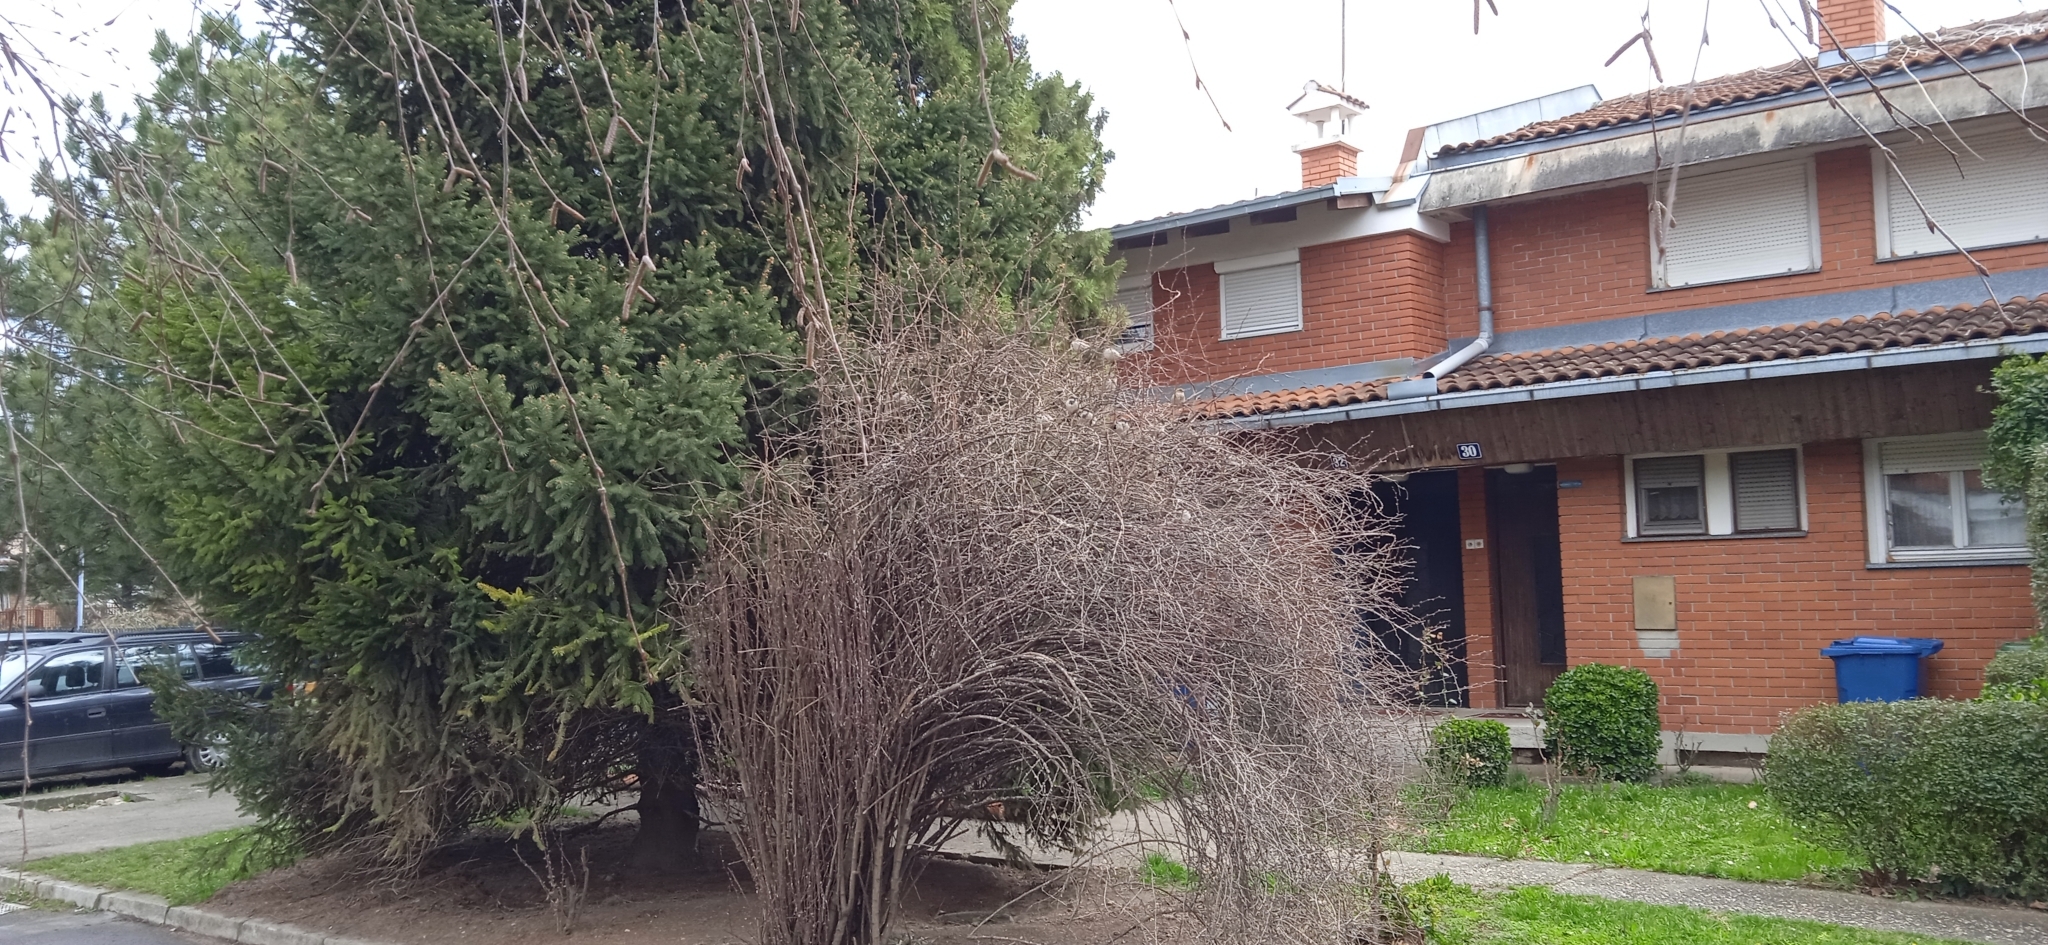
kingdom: Animalia
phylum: Chordata
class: Aves
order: Passeriformes
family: Passeridae
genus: Passer
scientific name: Passer domesticus
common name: House sparrow
